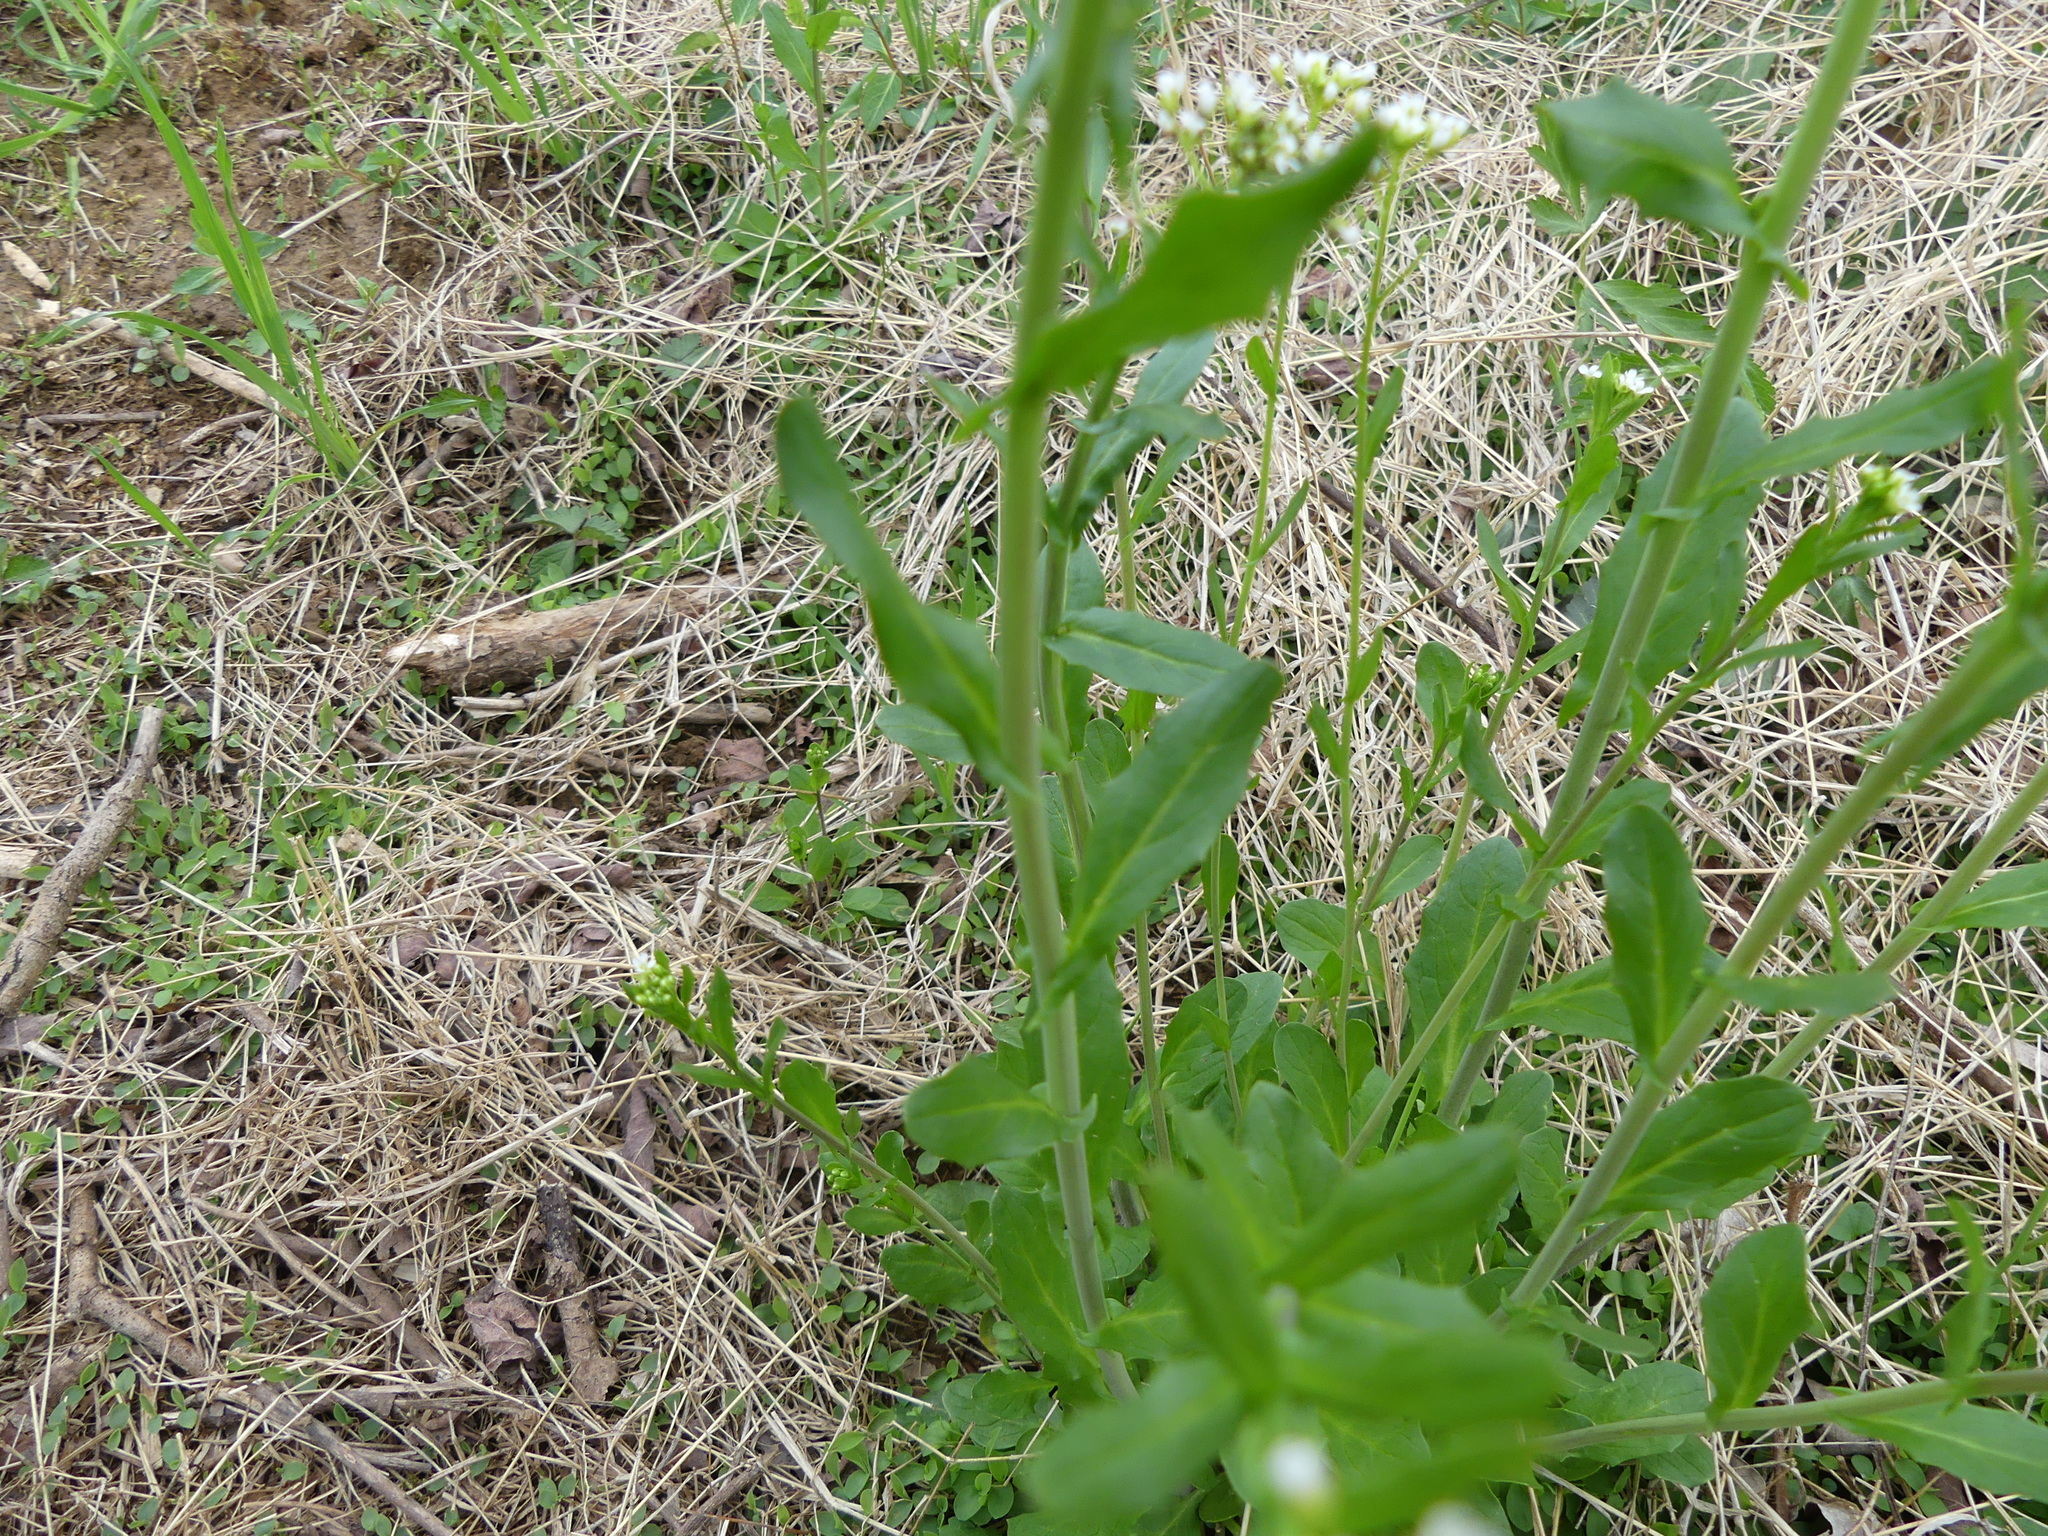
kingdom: Plantae
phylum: Tracheophyta
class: Magnoliopsida
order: Brassicales
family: Brassicaceae
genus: Mummenhoffia
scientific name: Mummenhoffia alliacea
